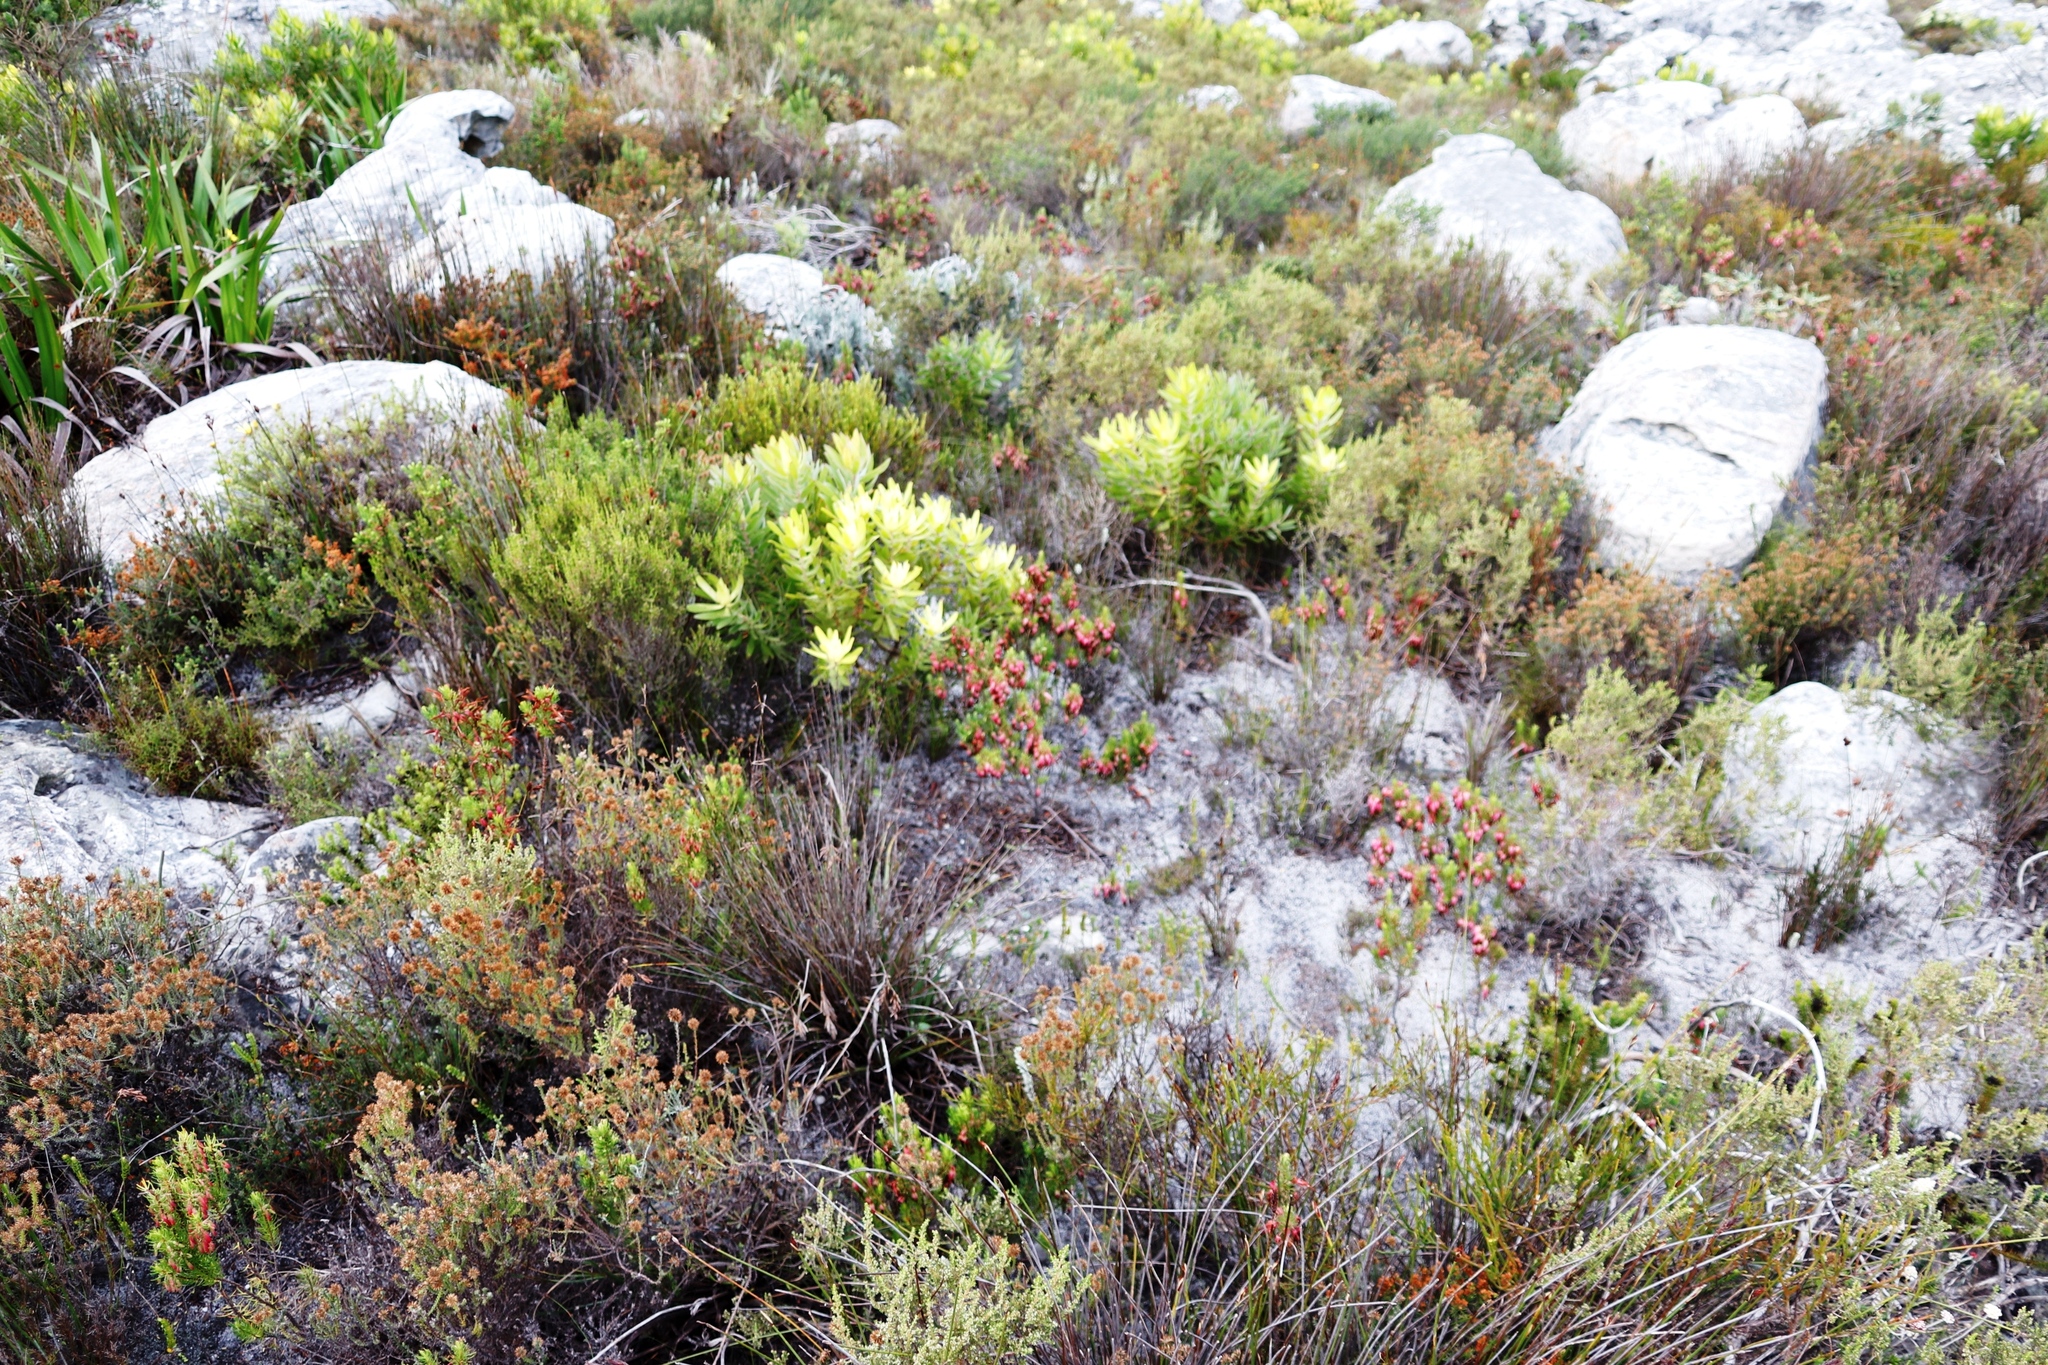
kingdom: Plantae
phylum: Tracheophyta
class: Magnoliopsida
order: Proteales
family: Proteaceae
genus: Leucadendron
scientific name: Leucadendron laureolum
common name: Golden sunshinebush
